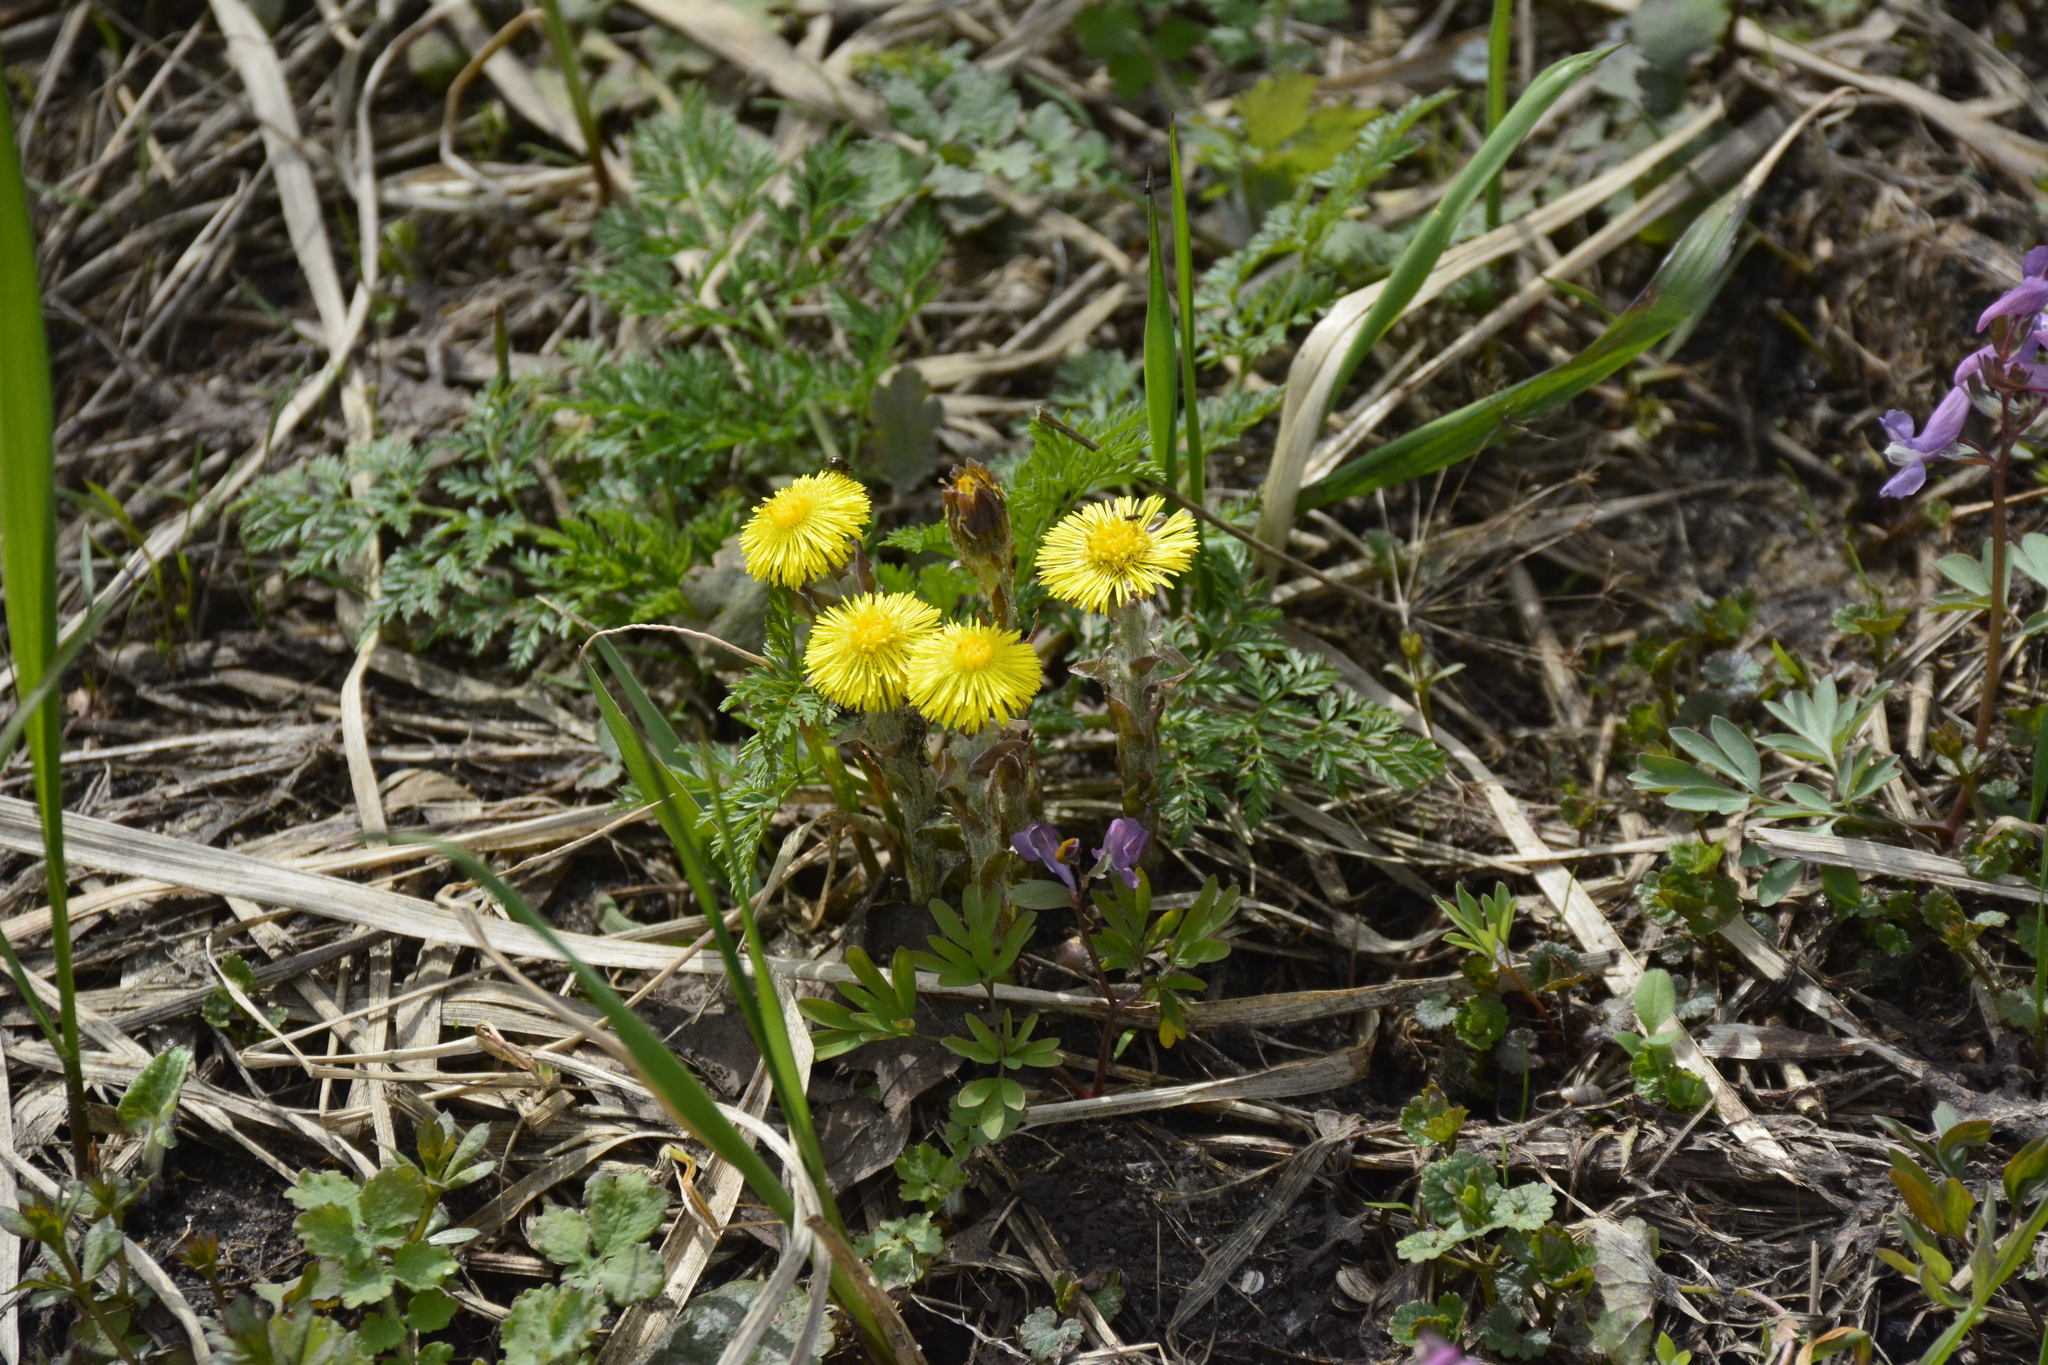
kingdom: Plantae
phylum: Tracheophyta
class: Magnoliopsida
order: Asterales
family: Asteraceae
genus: Tussilago
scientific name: Tussilago farfara
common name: Coltsfoot
